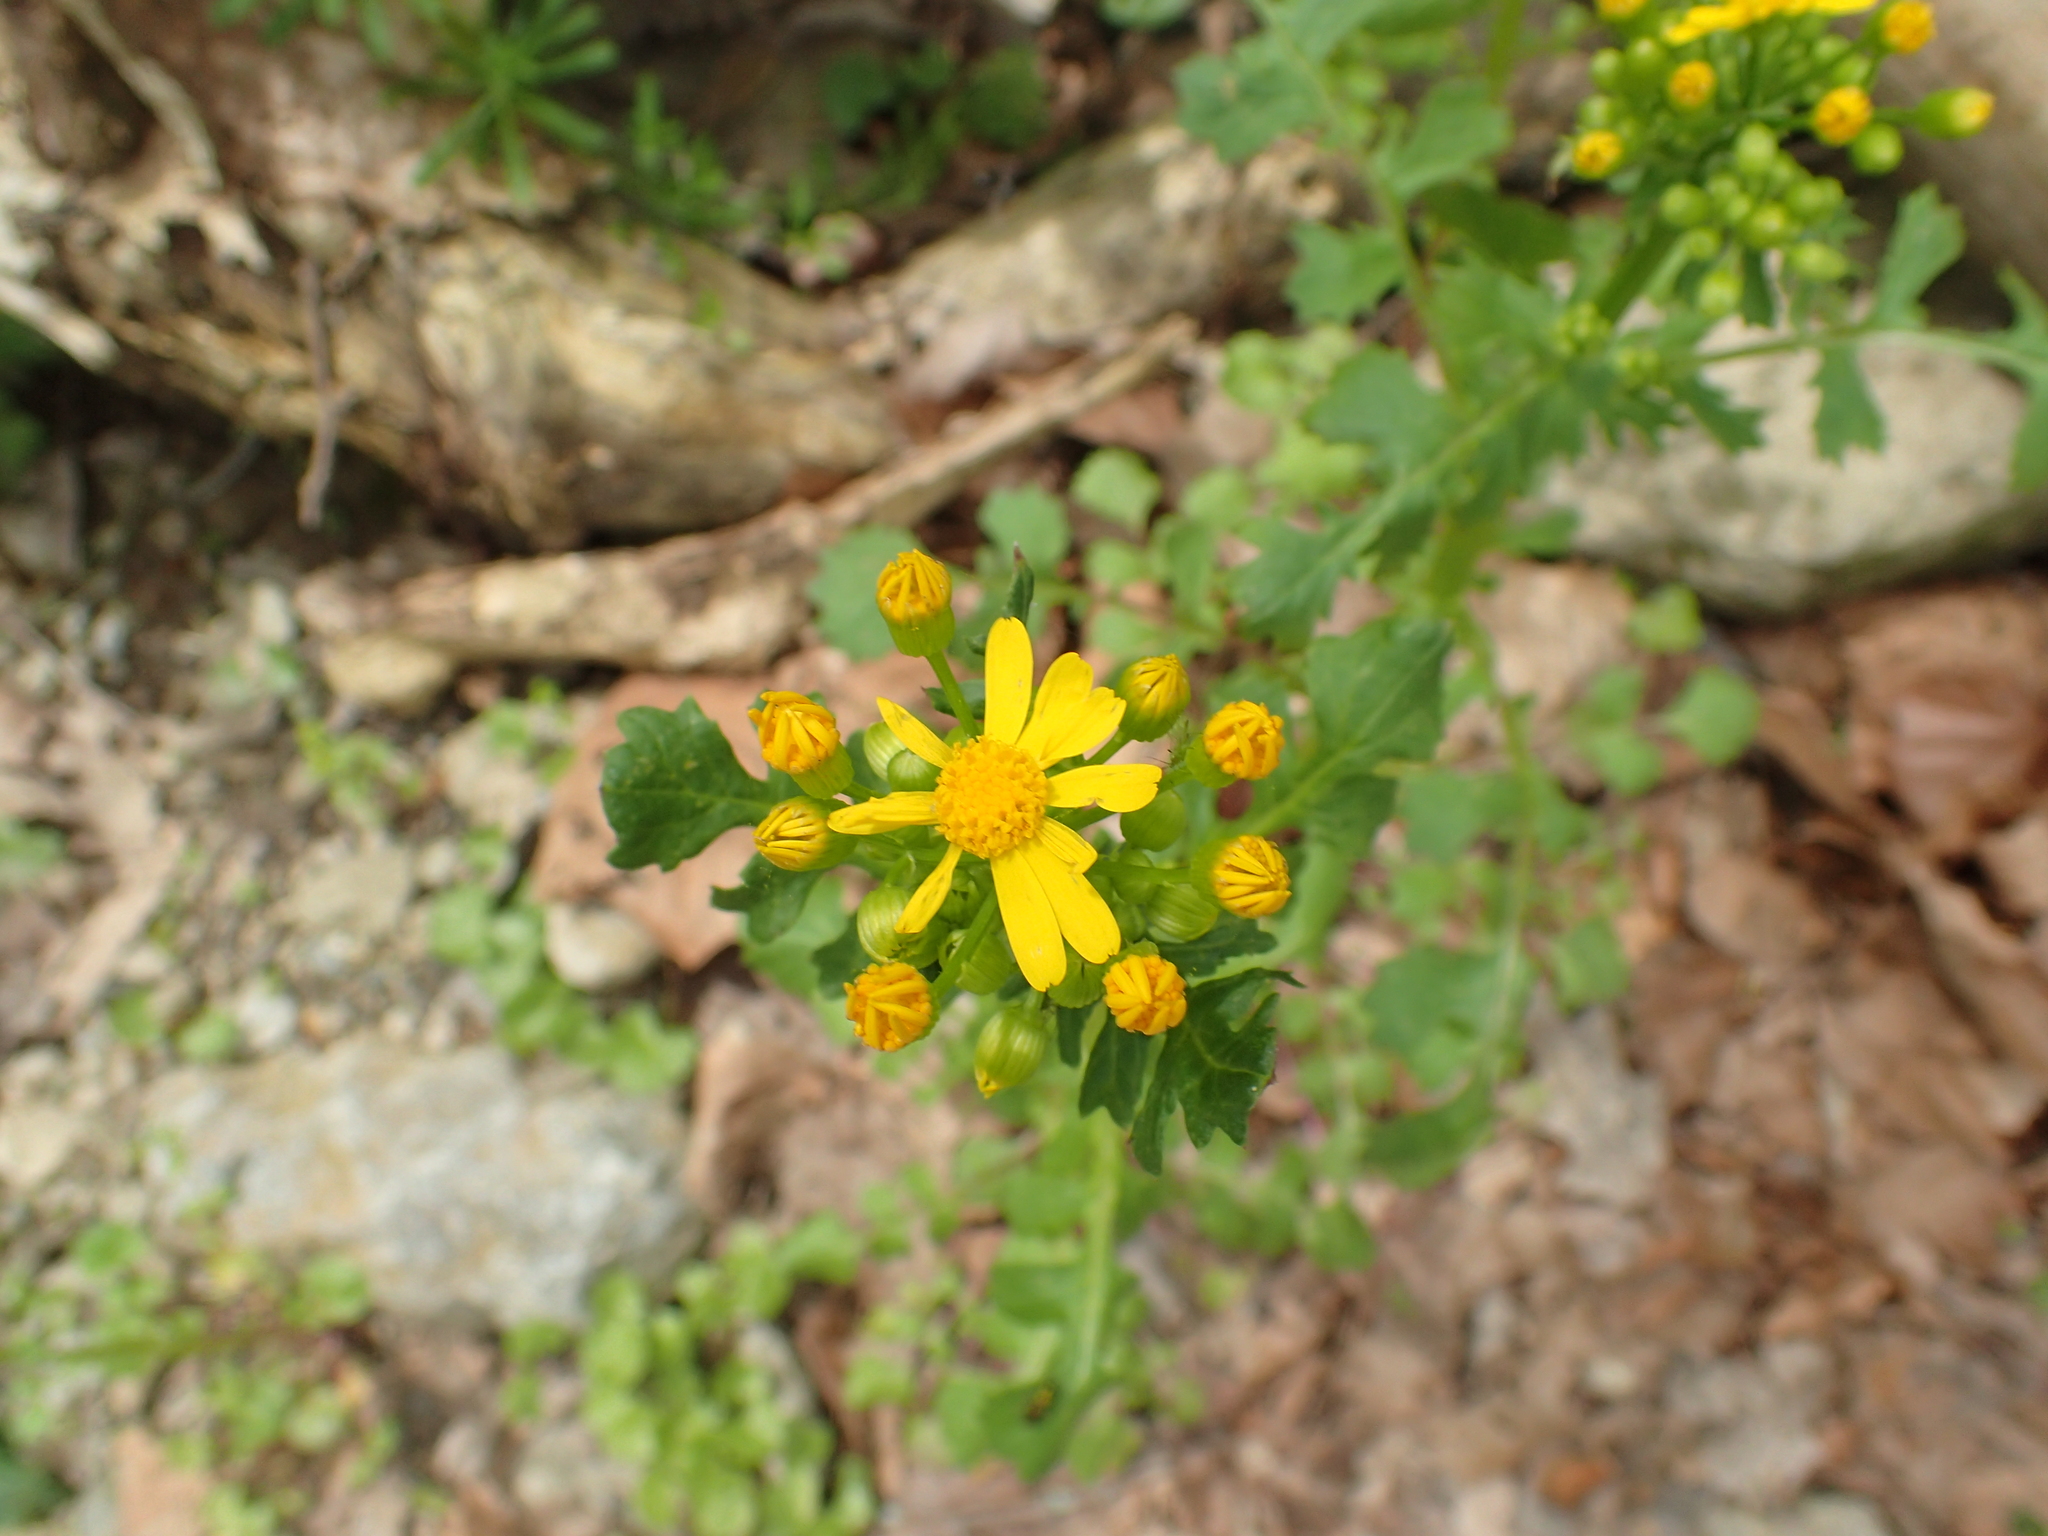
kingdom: Plantae
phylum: Tracheophyta
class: Magnoliopsida
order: Asterales
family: Asteraceae
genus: Packera
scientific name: Packera glabella
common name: Butterweed
